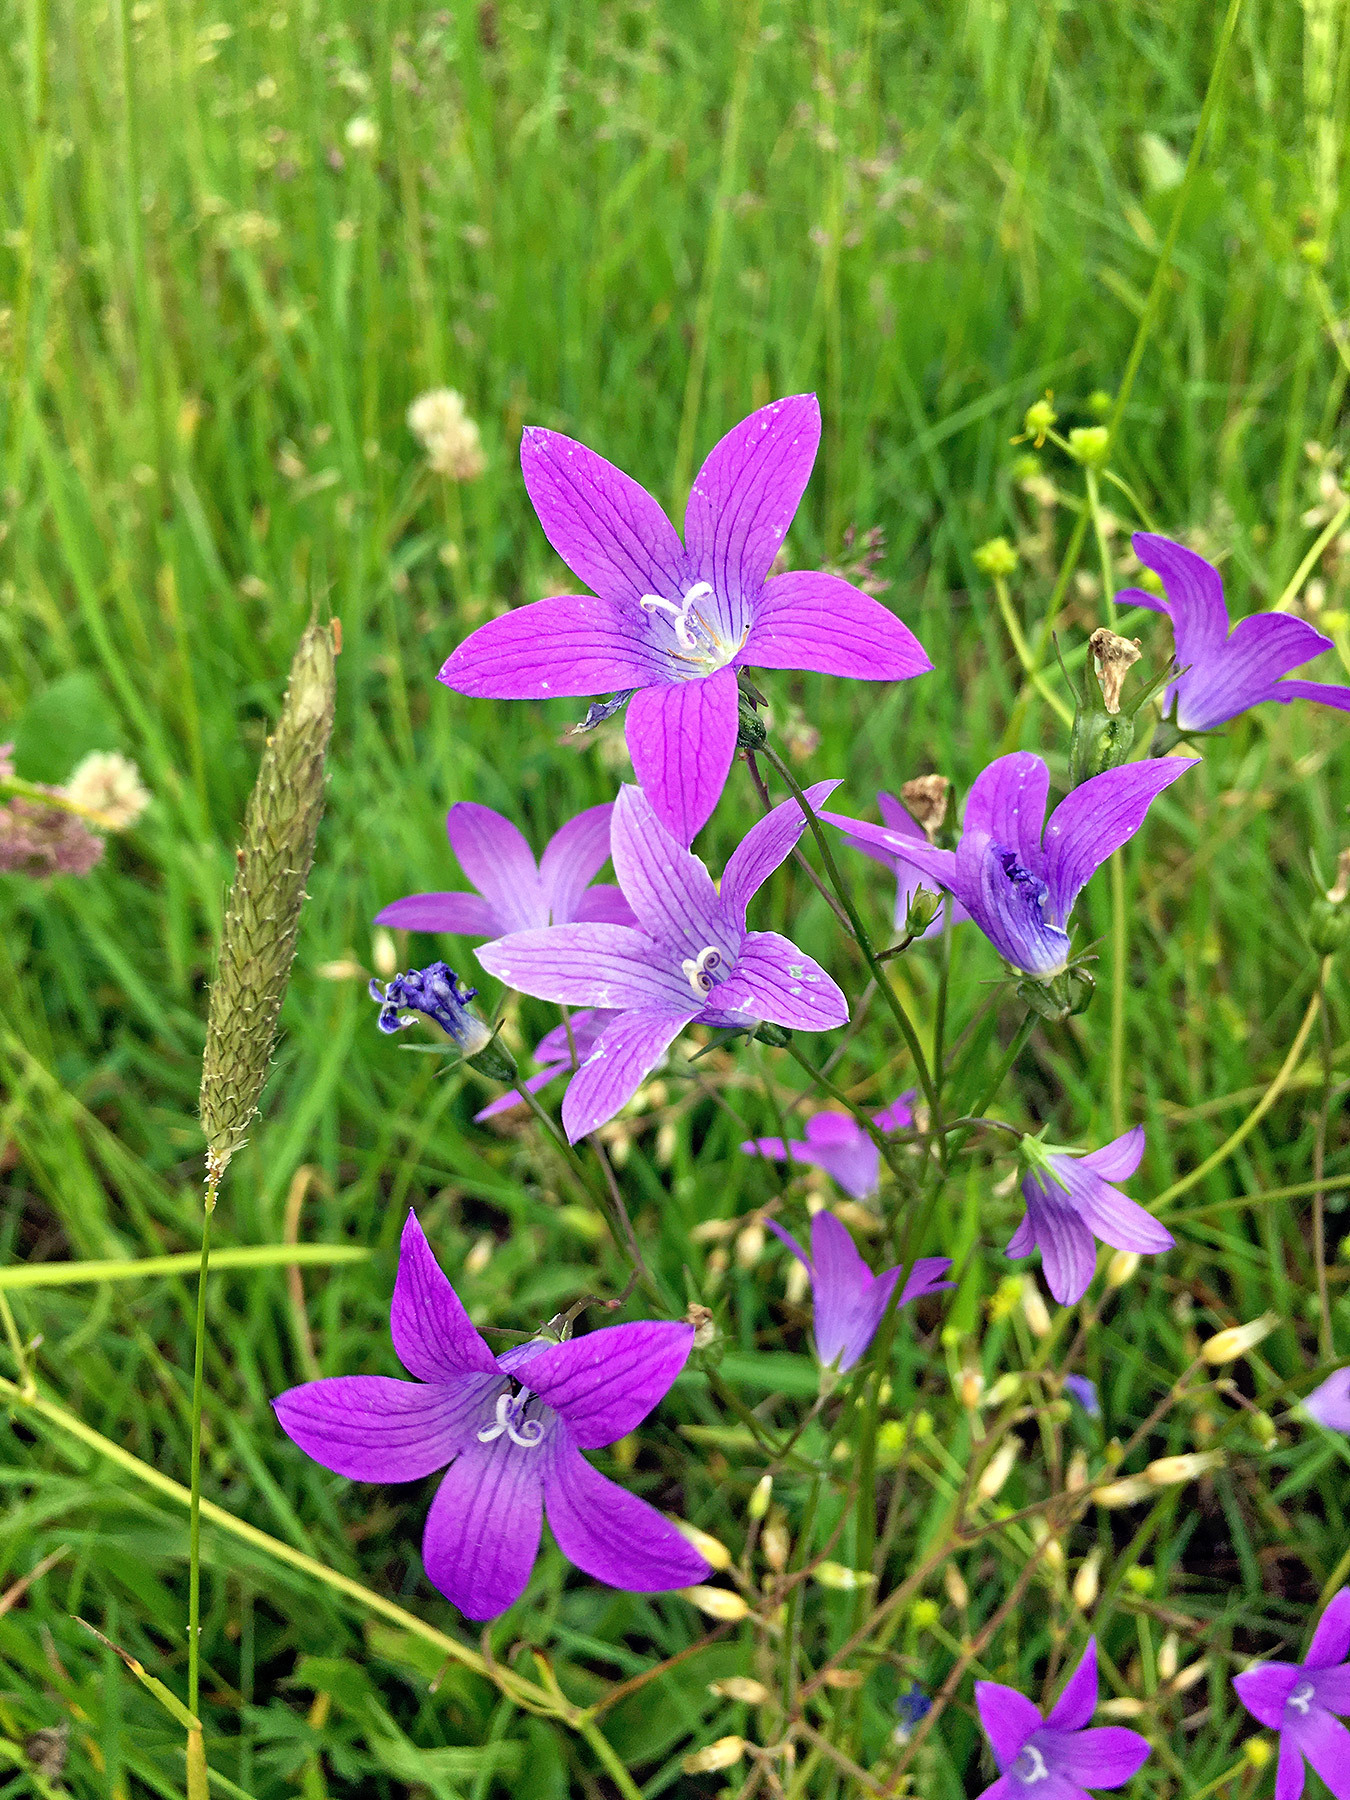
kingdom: Plantae
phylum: Tracheophyta
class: Magnoliopsida
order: Asterales
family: Campanulaceae
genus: Campanula
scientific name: Campanula patula
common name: Spreading bellflower
